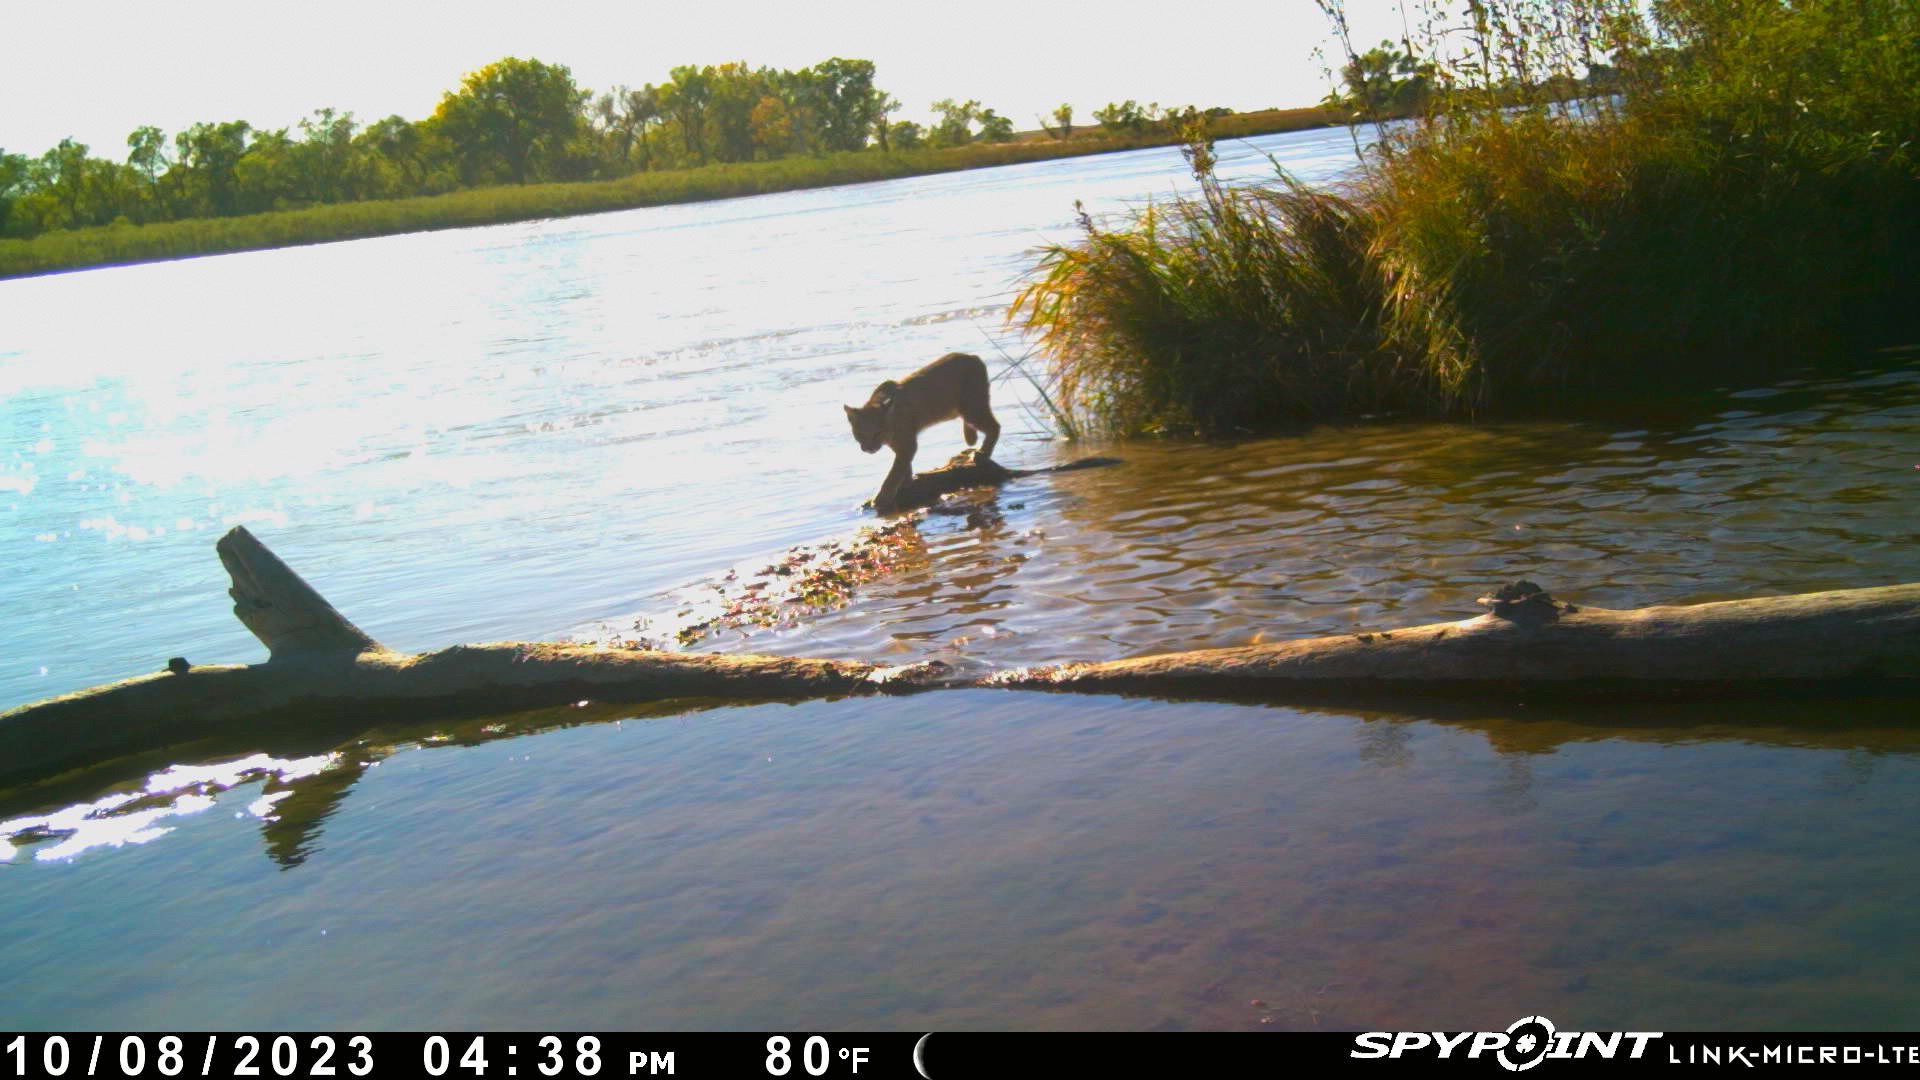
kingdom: Animalia
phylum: Chordata
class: Mammalia
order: Carnivora
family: Felidae
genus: Lynx
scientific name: Lynx rufus
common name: Bobcat
